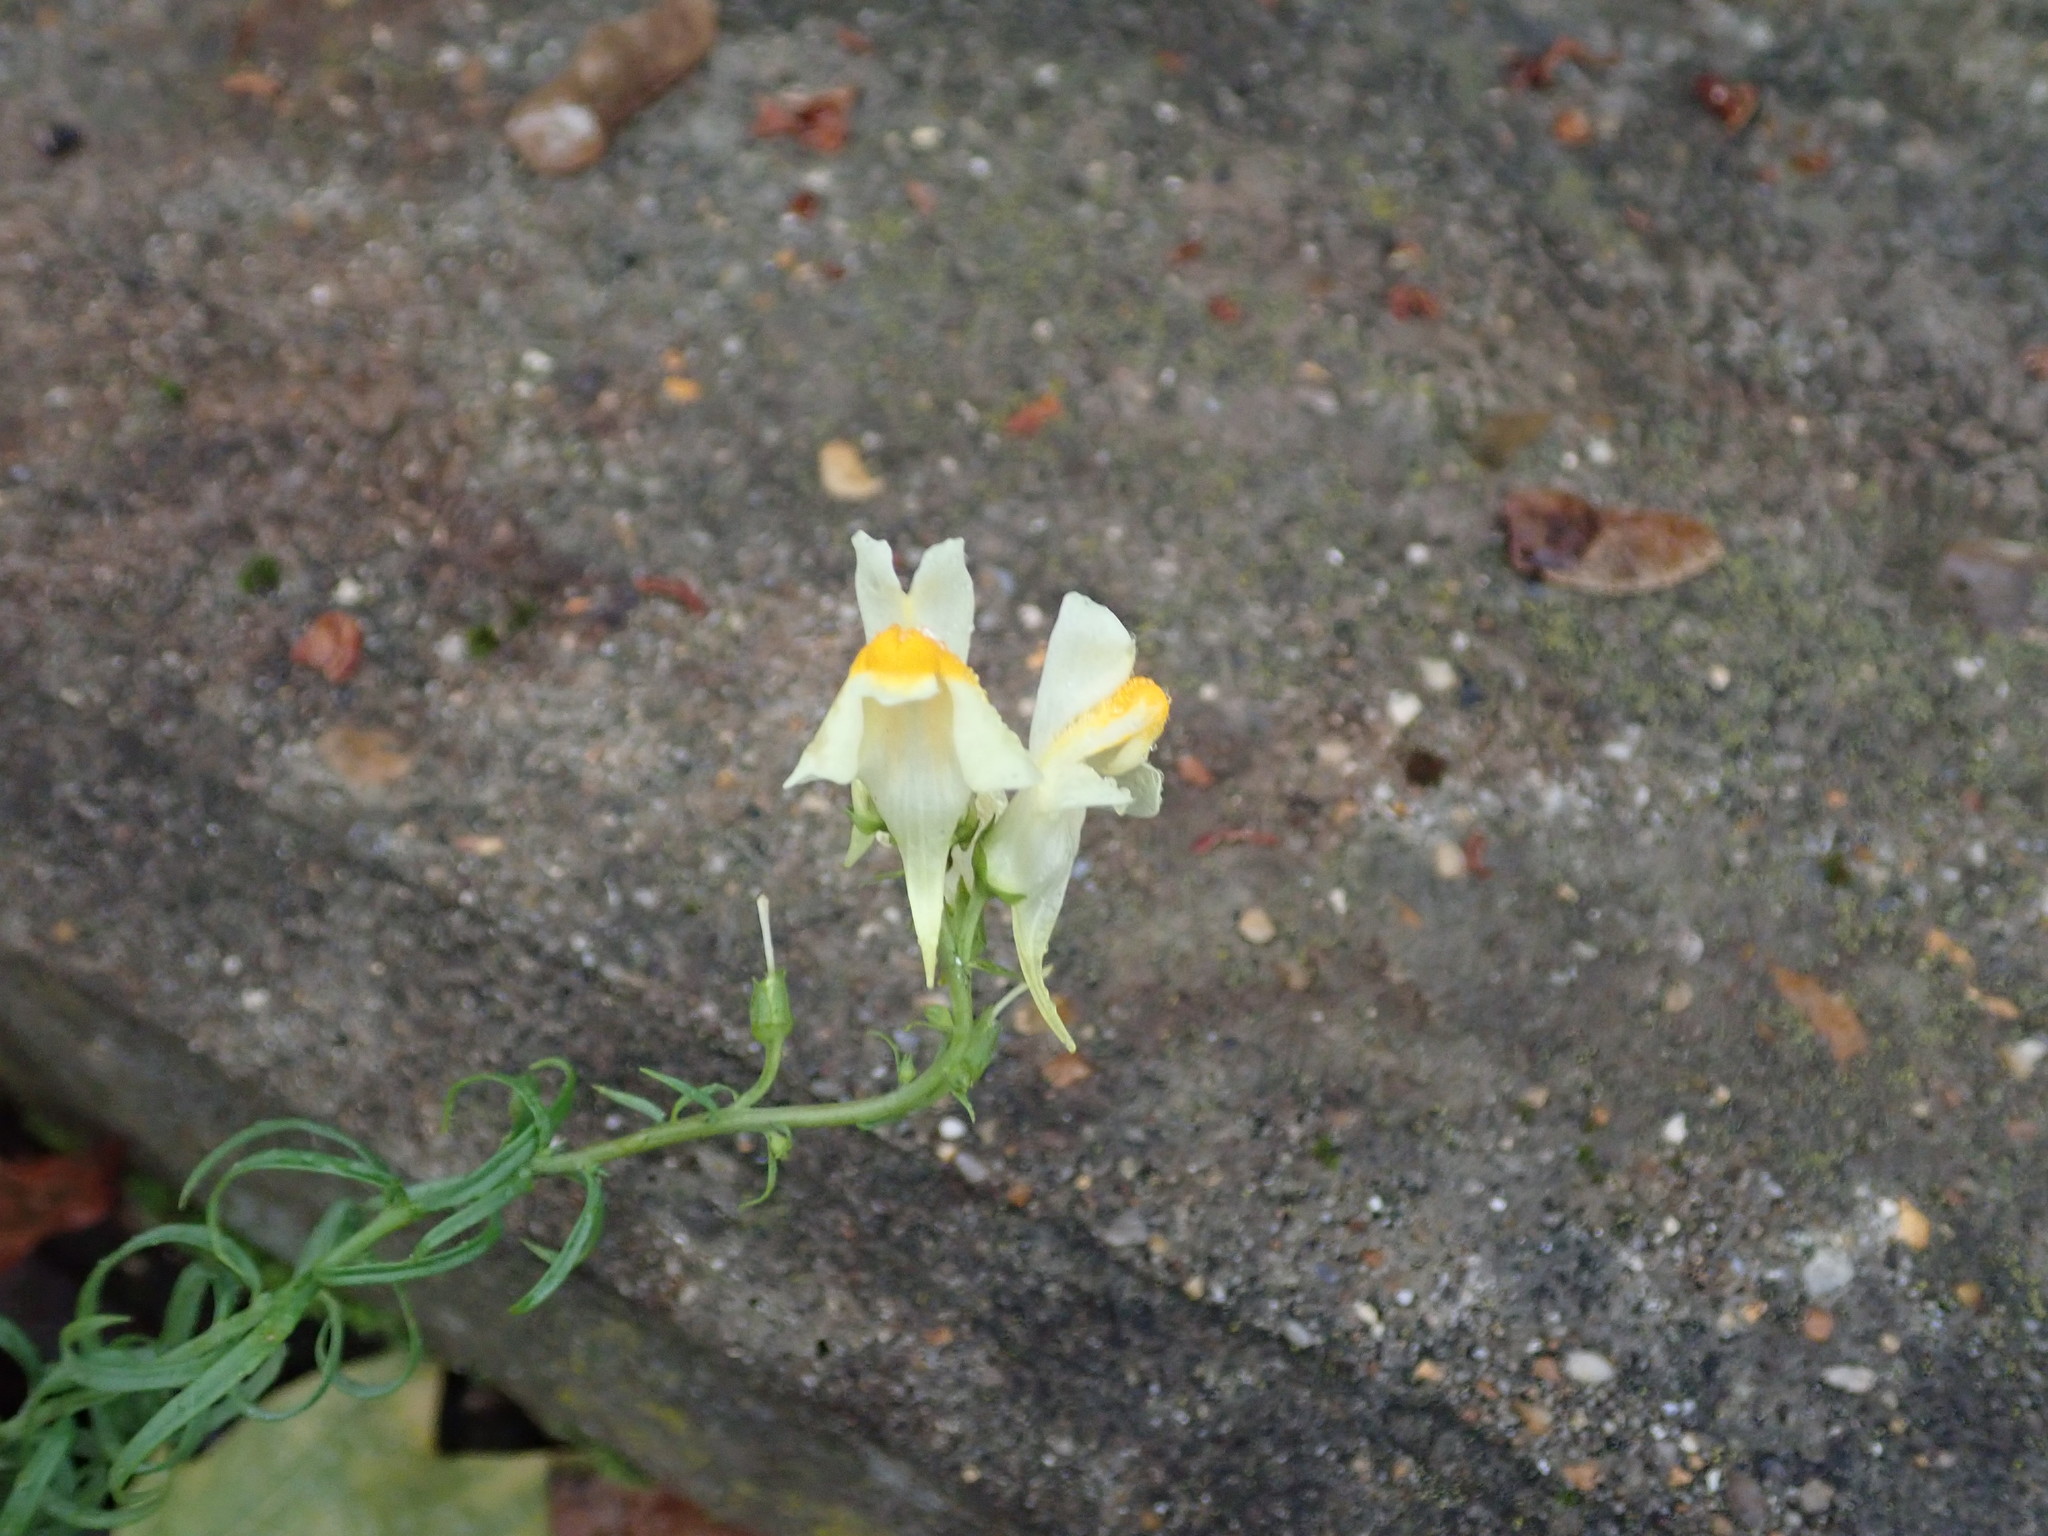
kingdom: Plantae
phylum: Tracheophyta
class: Magnoliopsida
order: Lamiales
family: Plantaginaceae
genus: Linaria
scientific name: Linaria vulgaris
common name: Butter and eggs
